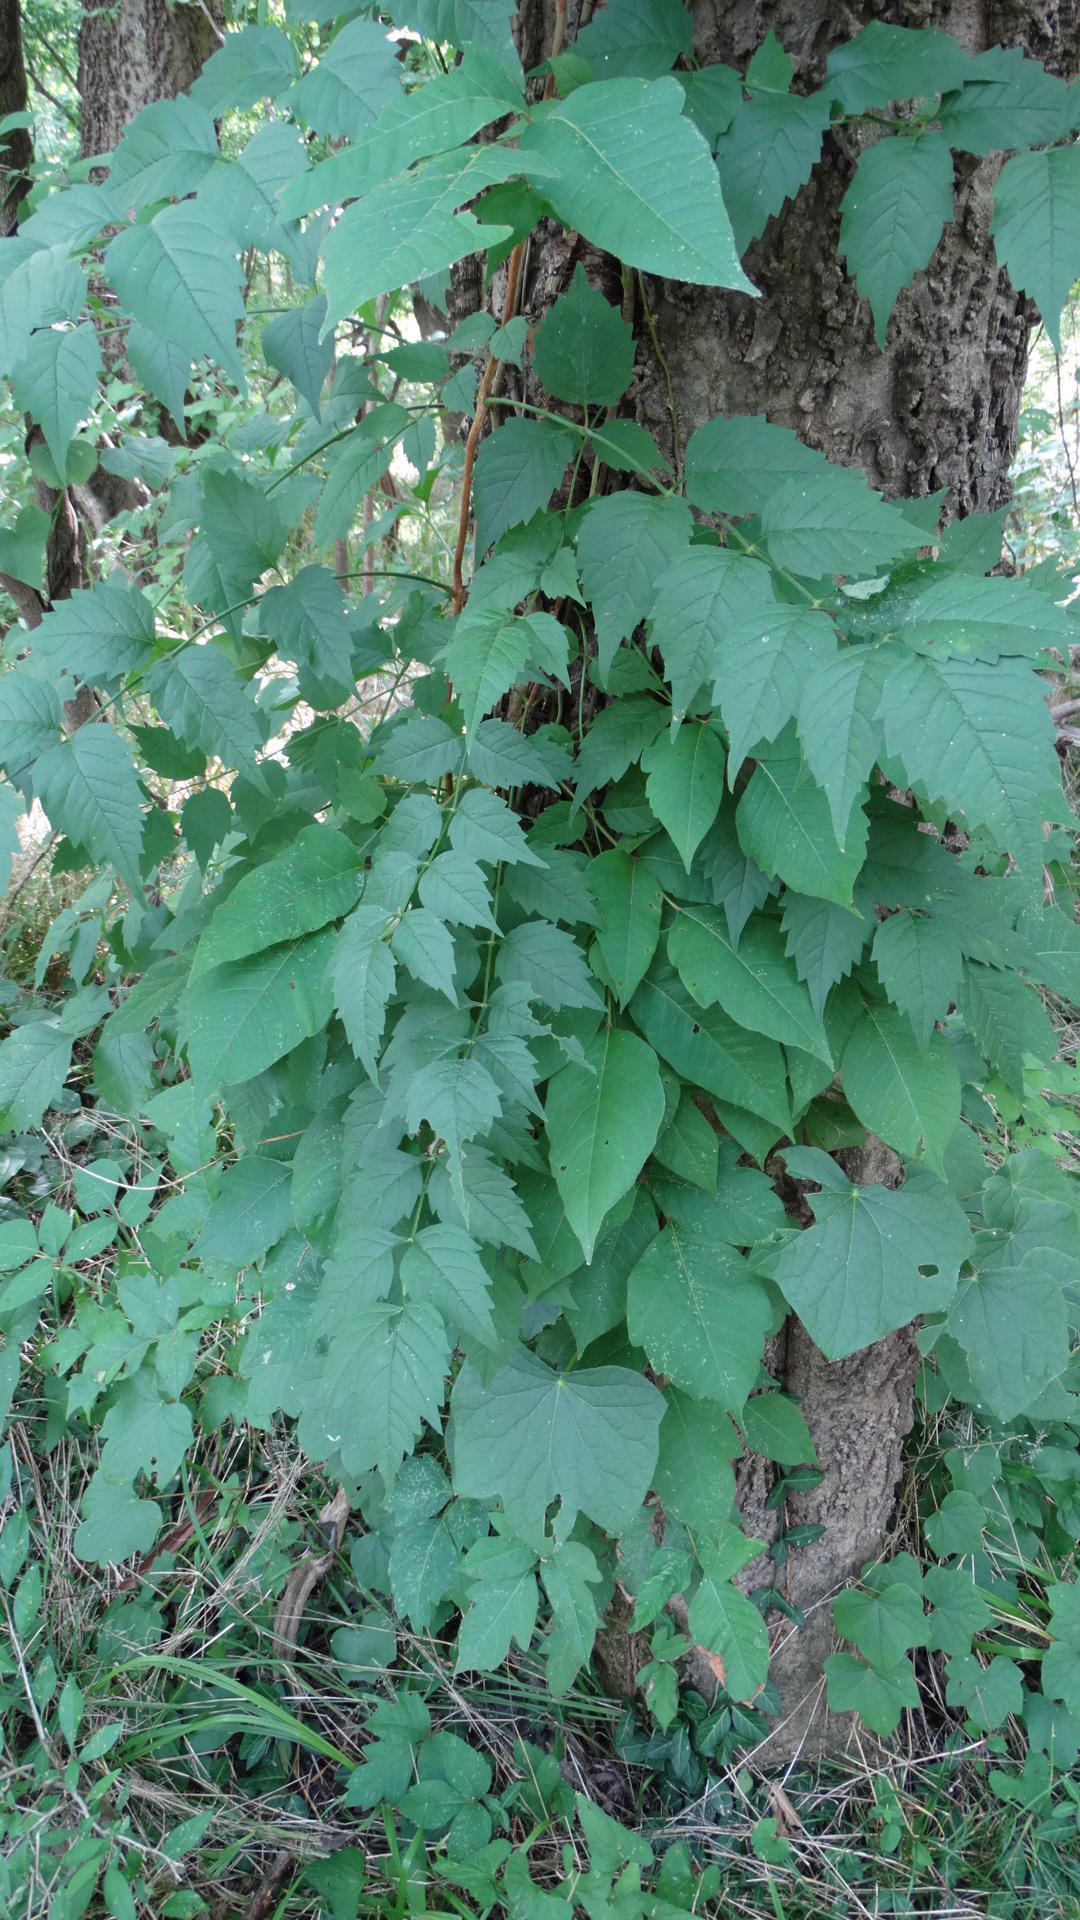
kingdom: Plantae
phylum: Tracheophyta
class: Magnoliopsida
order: Lamiales
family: Bignoniaceae
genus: Campsis
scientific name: Campsis radicans
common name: Trumpet-creeper
